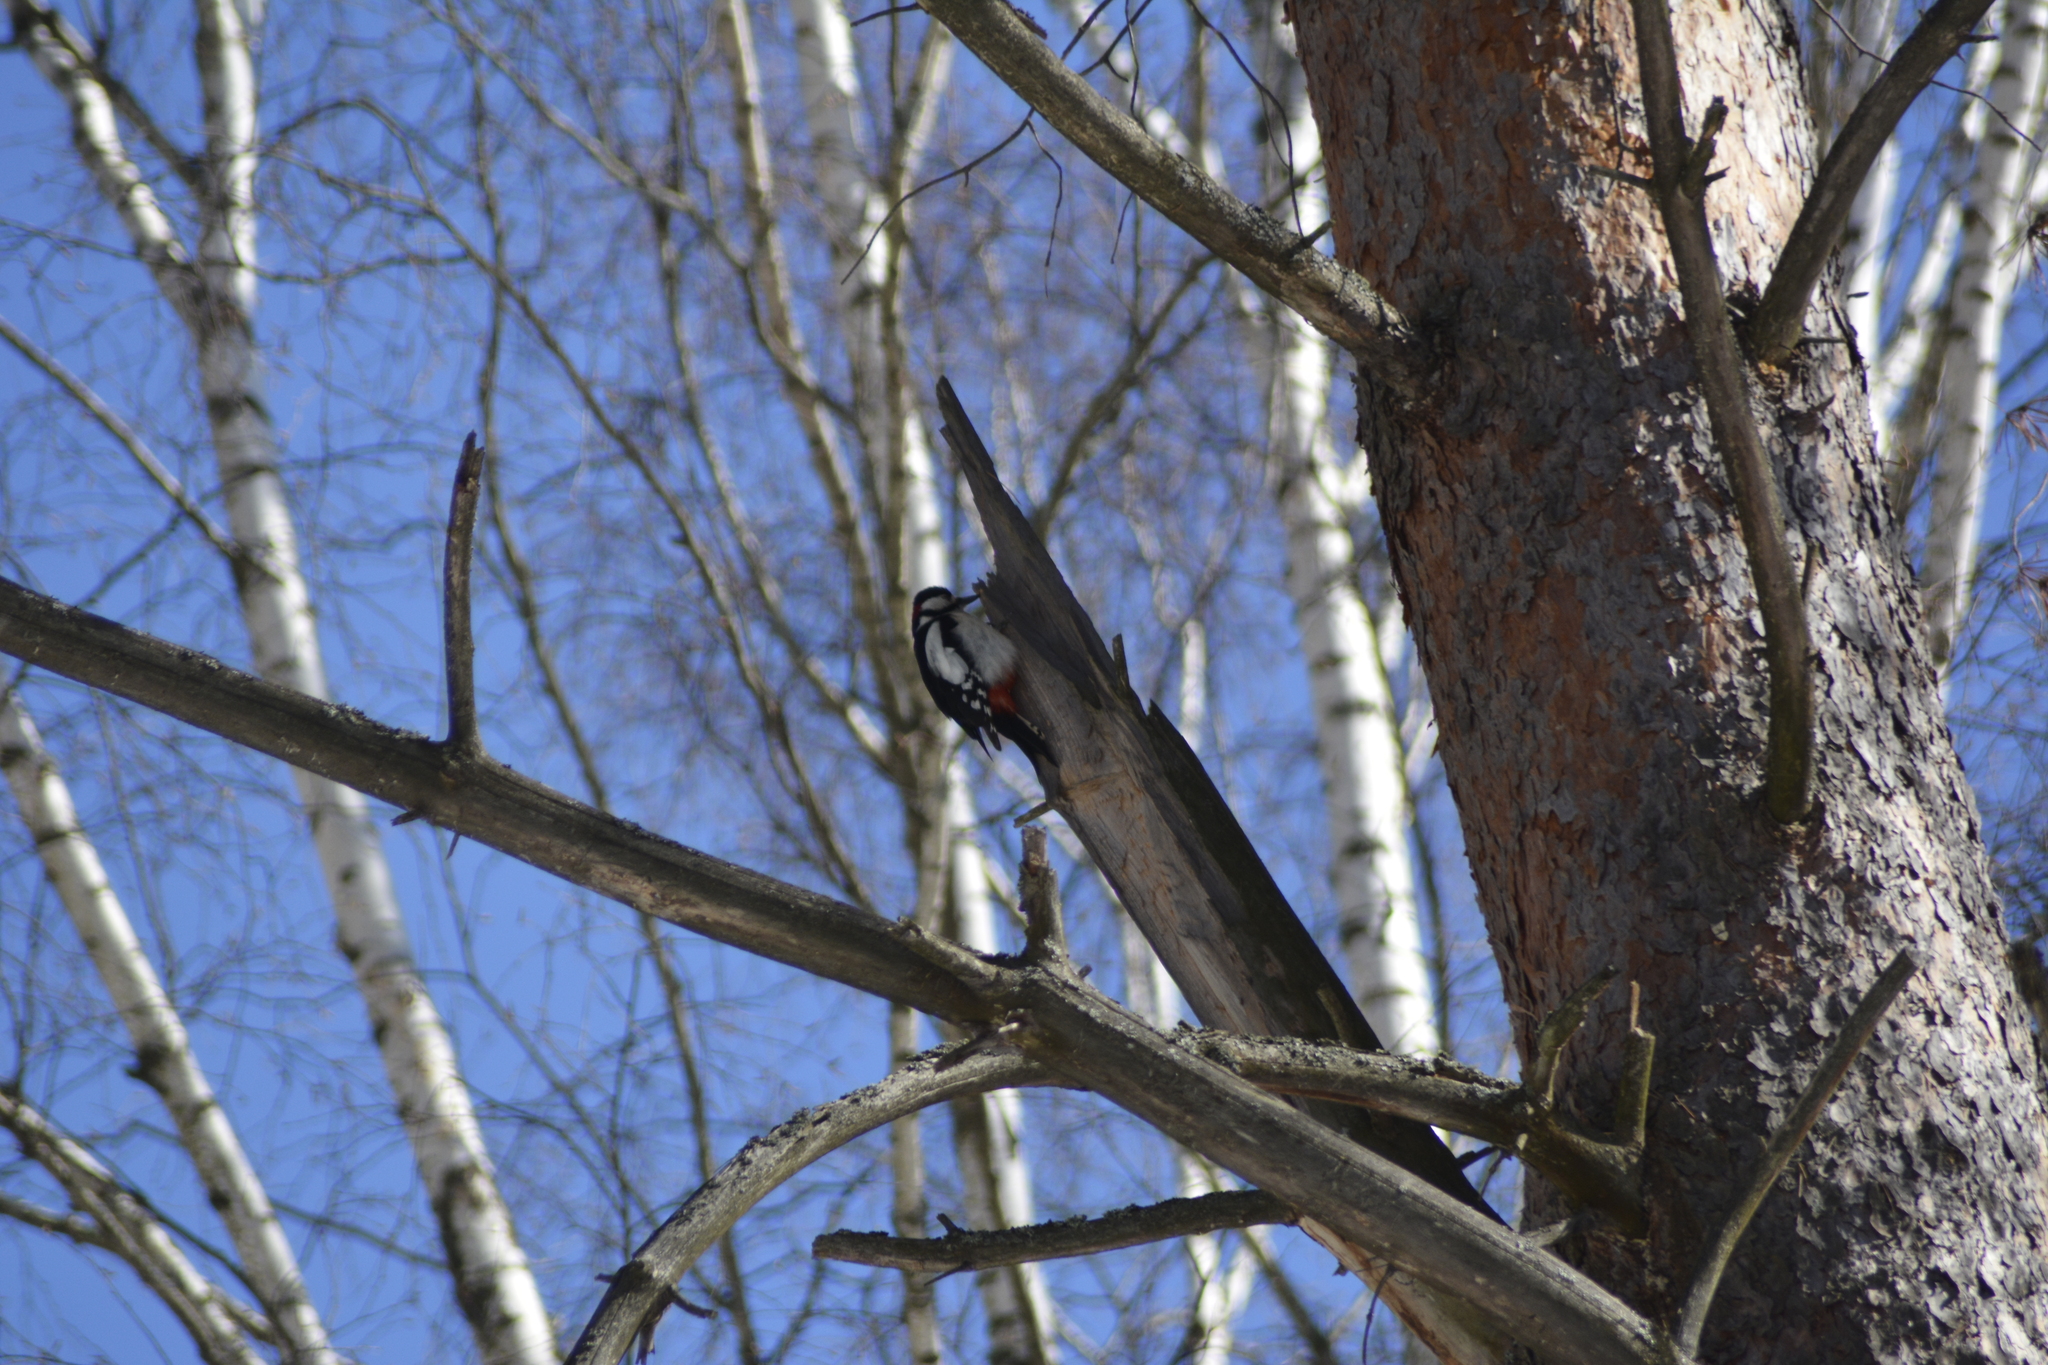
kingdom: Animalia
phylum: Chordata
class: Aves
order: Piciformes
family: Picidae
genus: Dendrocopos
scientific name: Dendrocopos major
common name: Great spotted woodpecker
